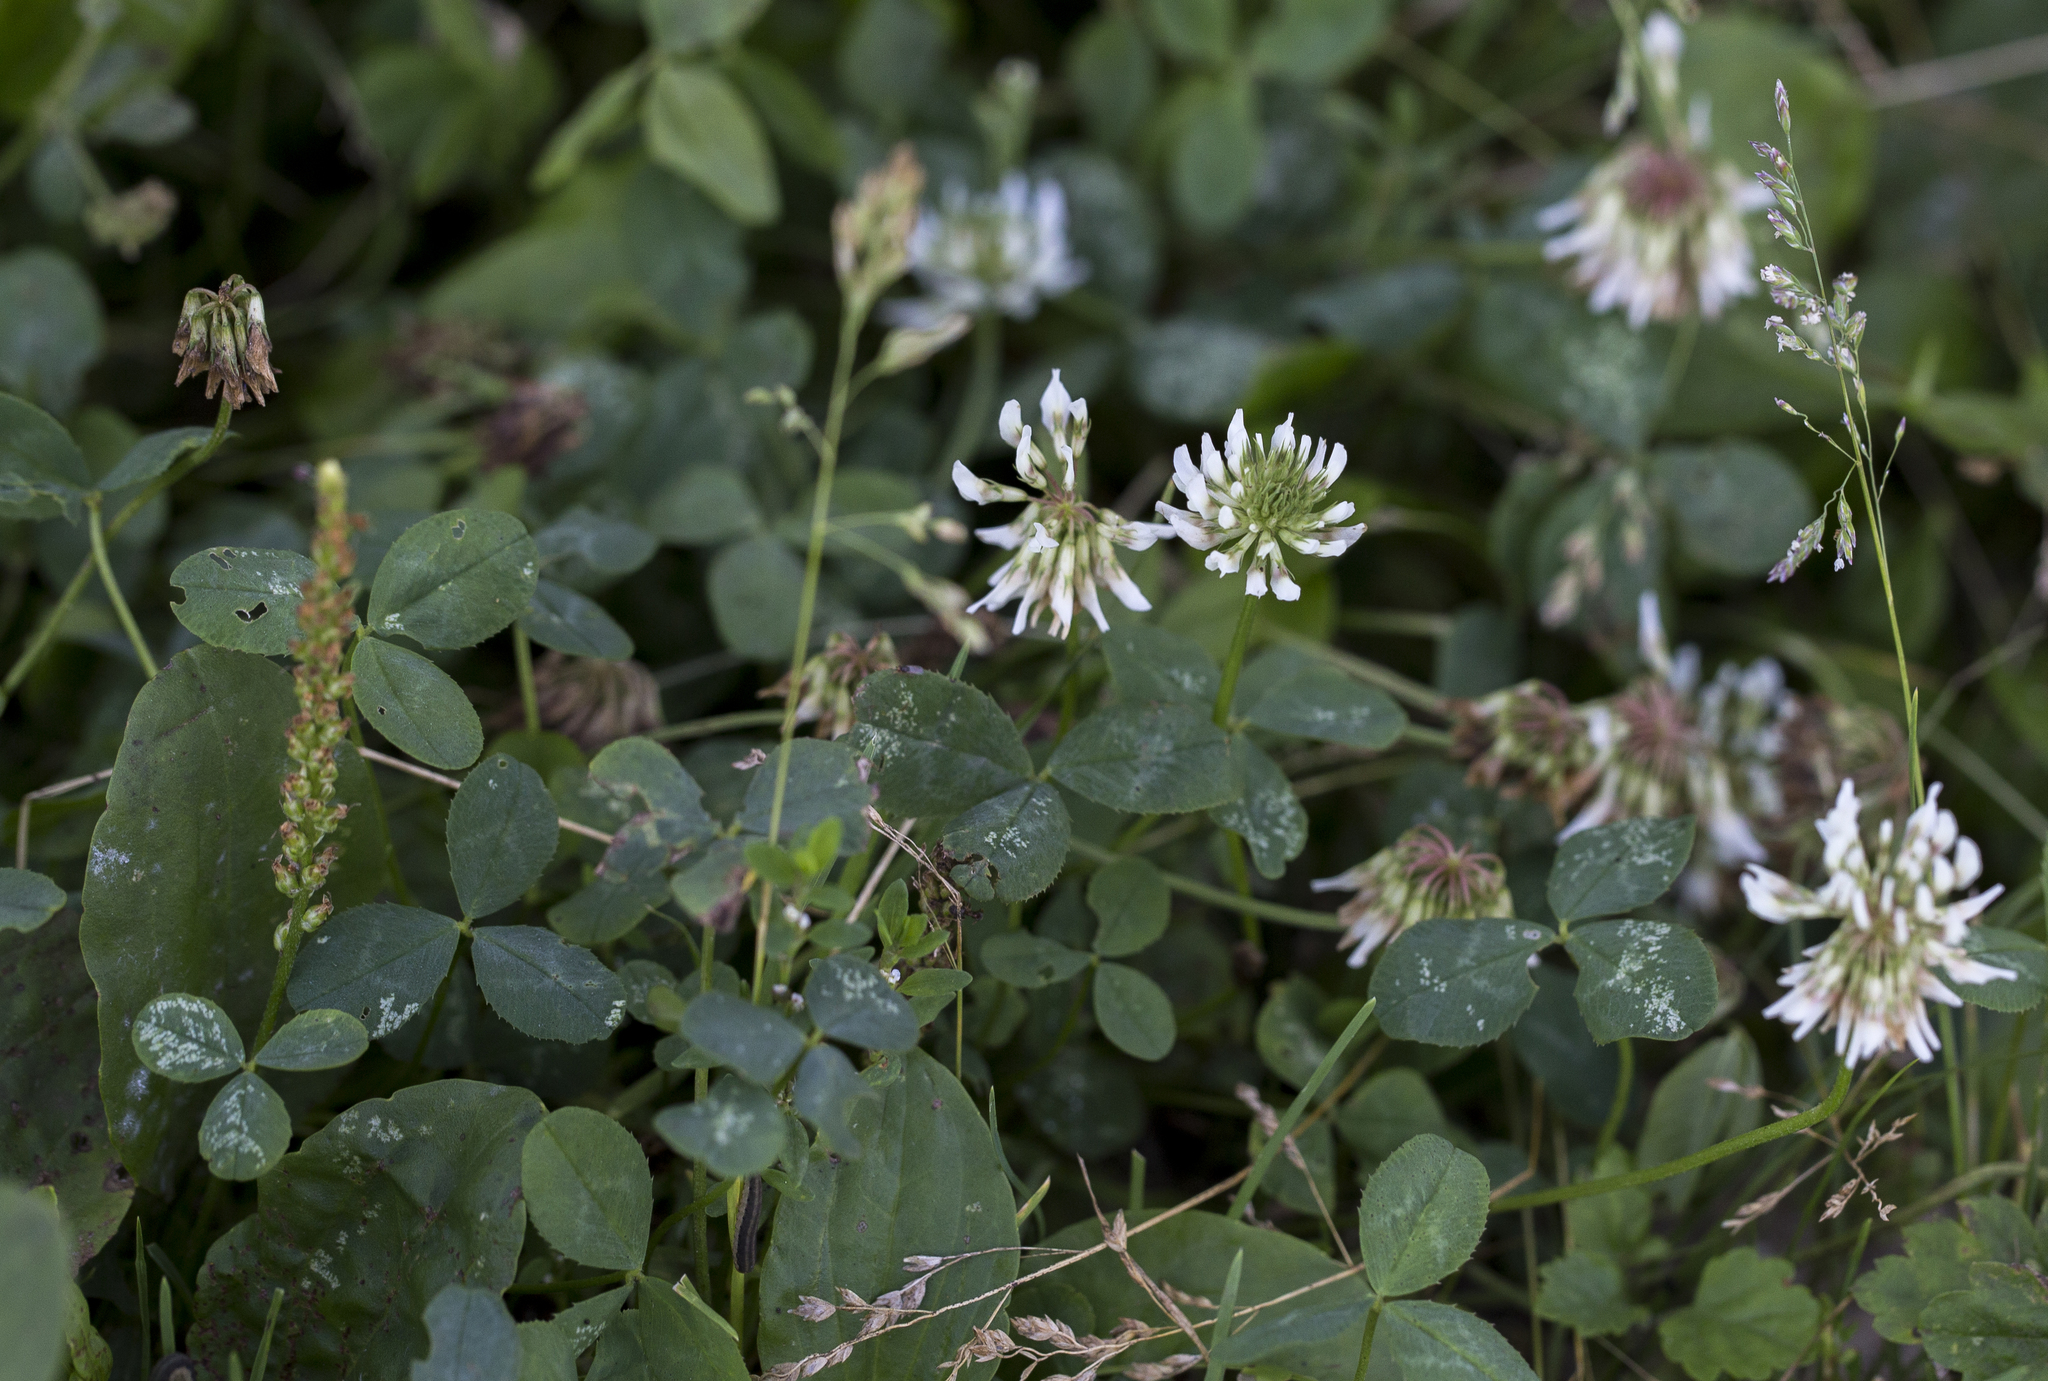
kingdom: Plantae
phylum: Tracheophyta
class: Magnoliopsida
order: Fabales
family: Fabaceae
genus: Trifolium
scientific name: Trifolium repens
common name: White clover
